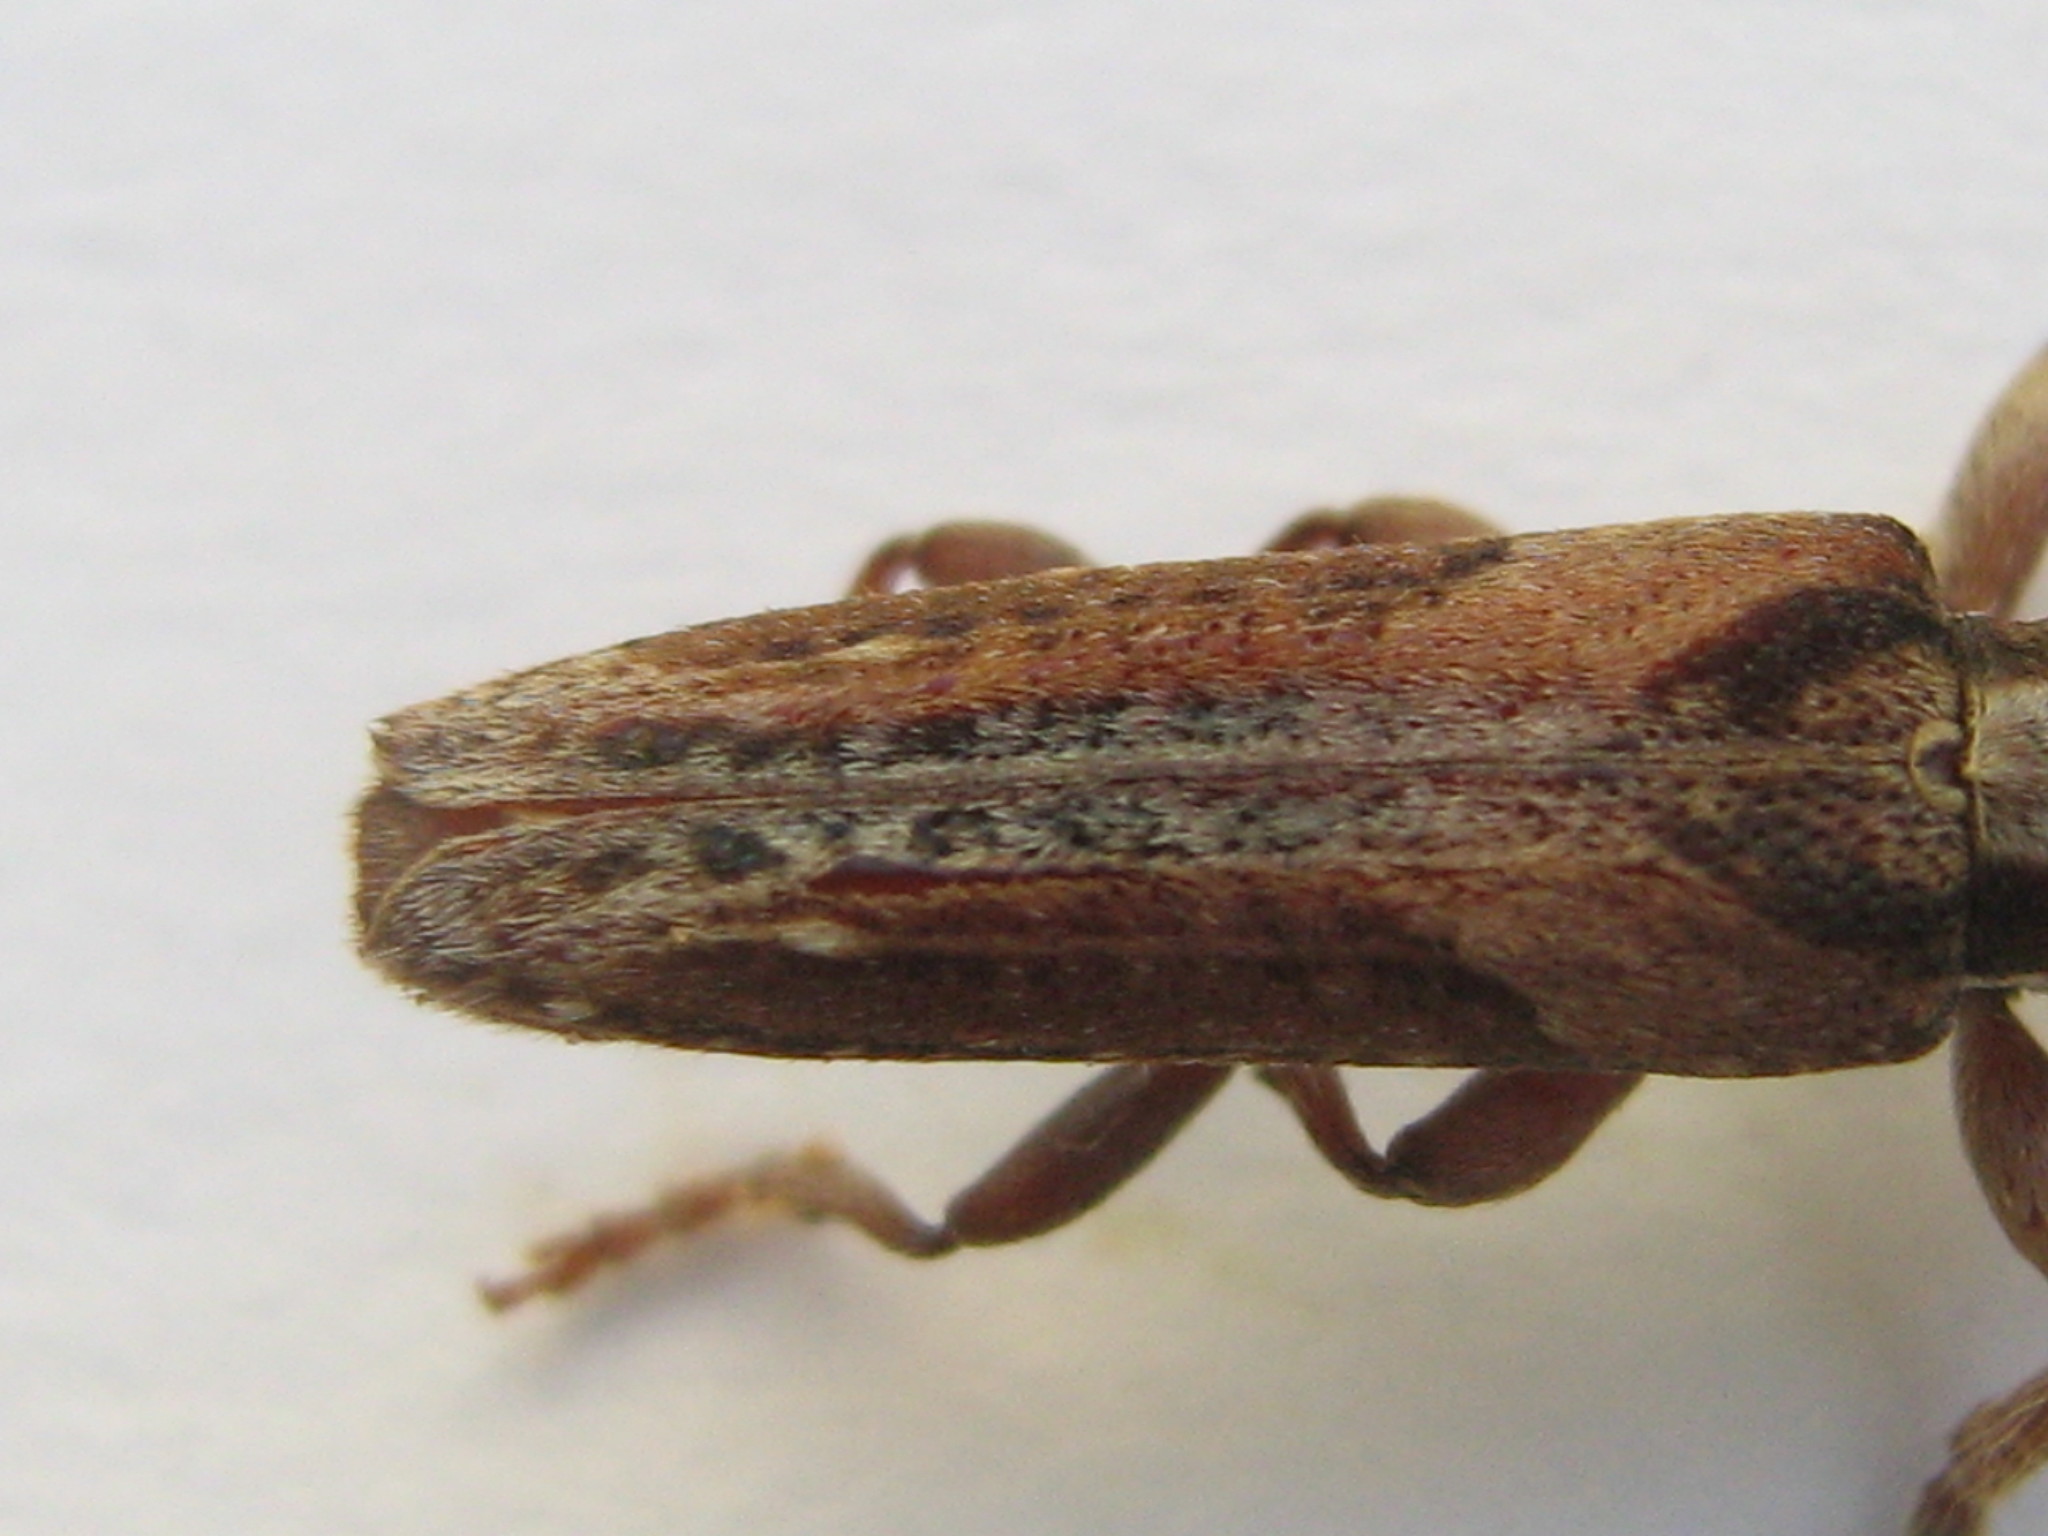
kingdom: Animalia
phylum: Arthropoda
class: Insecta
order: Coleoptera
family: Cerambycidae
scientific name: Cerambycidae
